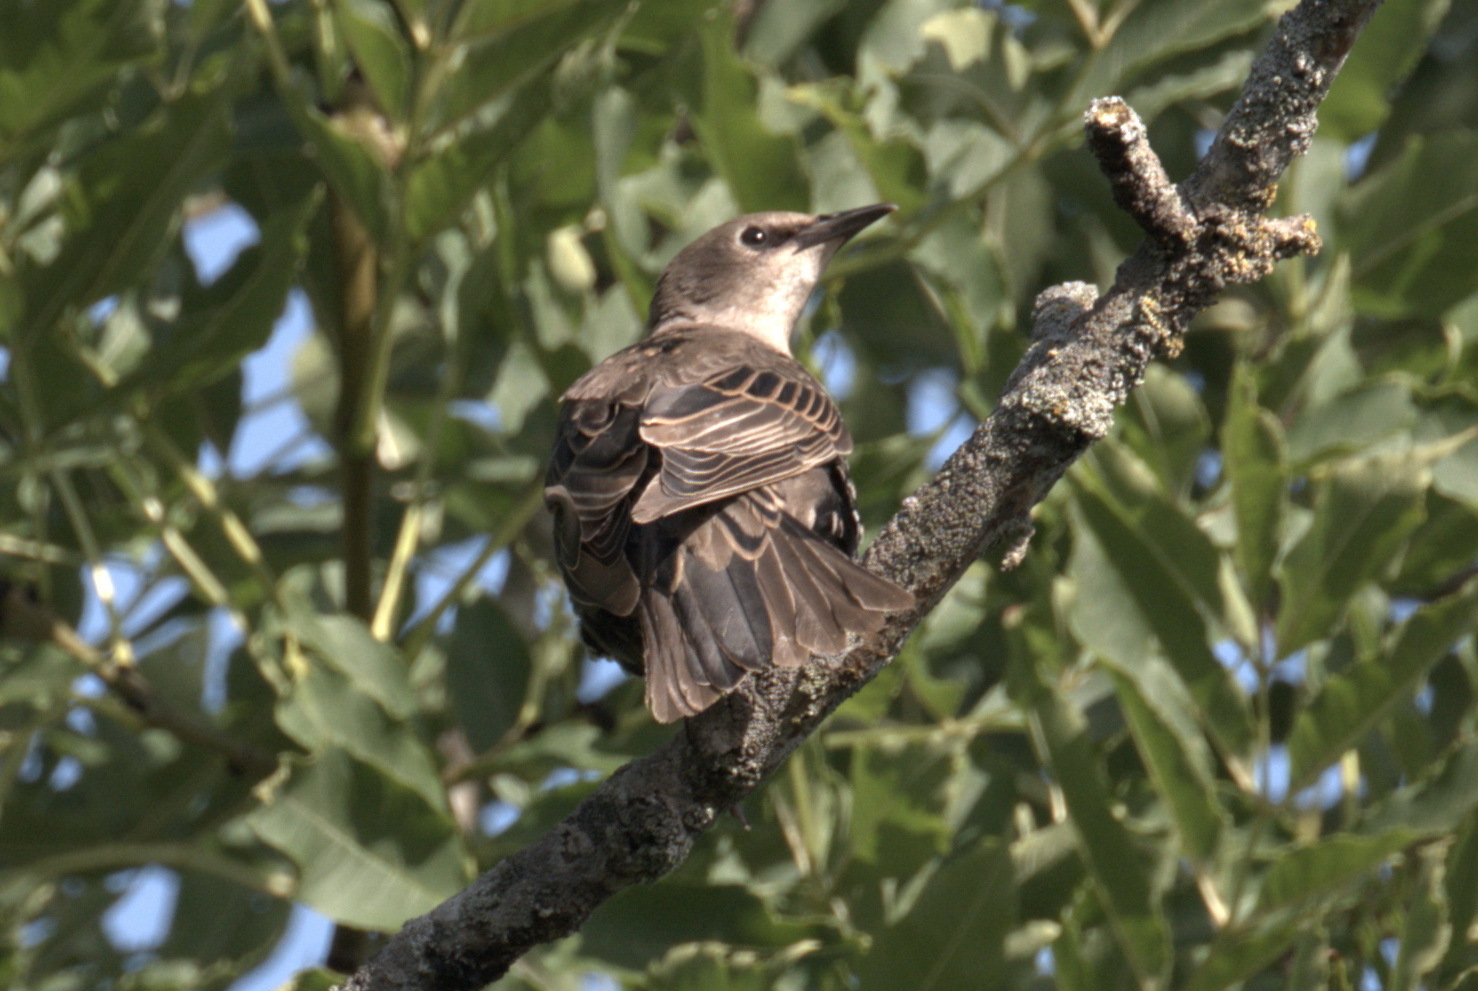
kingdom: Animalia
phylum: Chordata
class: Aves
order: Passeriformes
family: Sturnidae
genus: Sturnus
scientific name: Sturnus vulgaris
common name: Common starling
